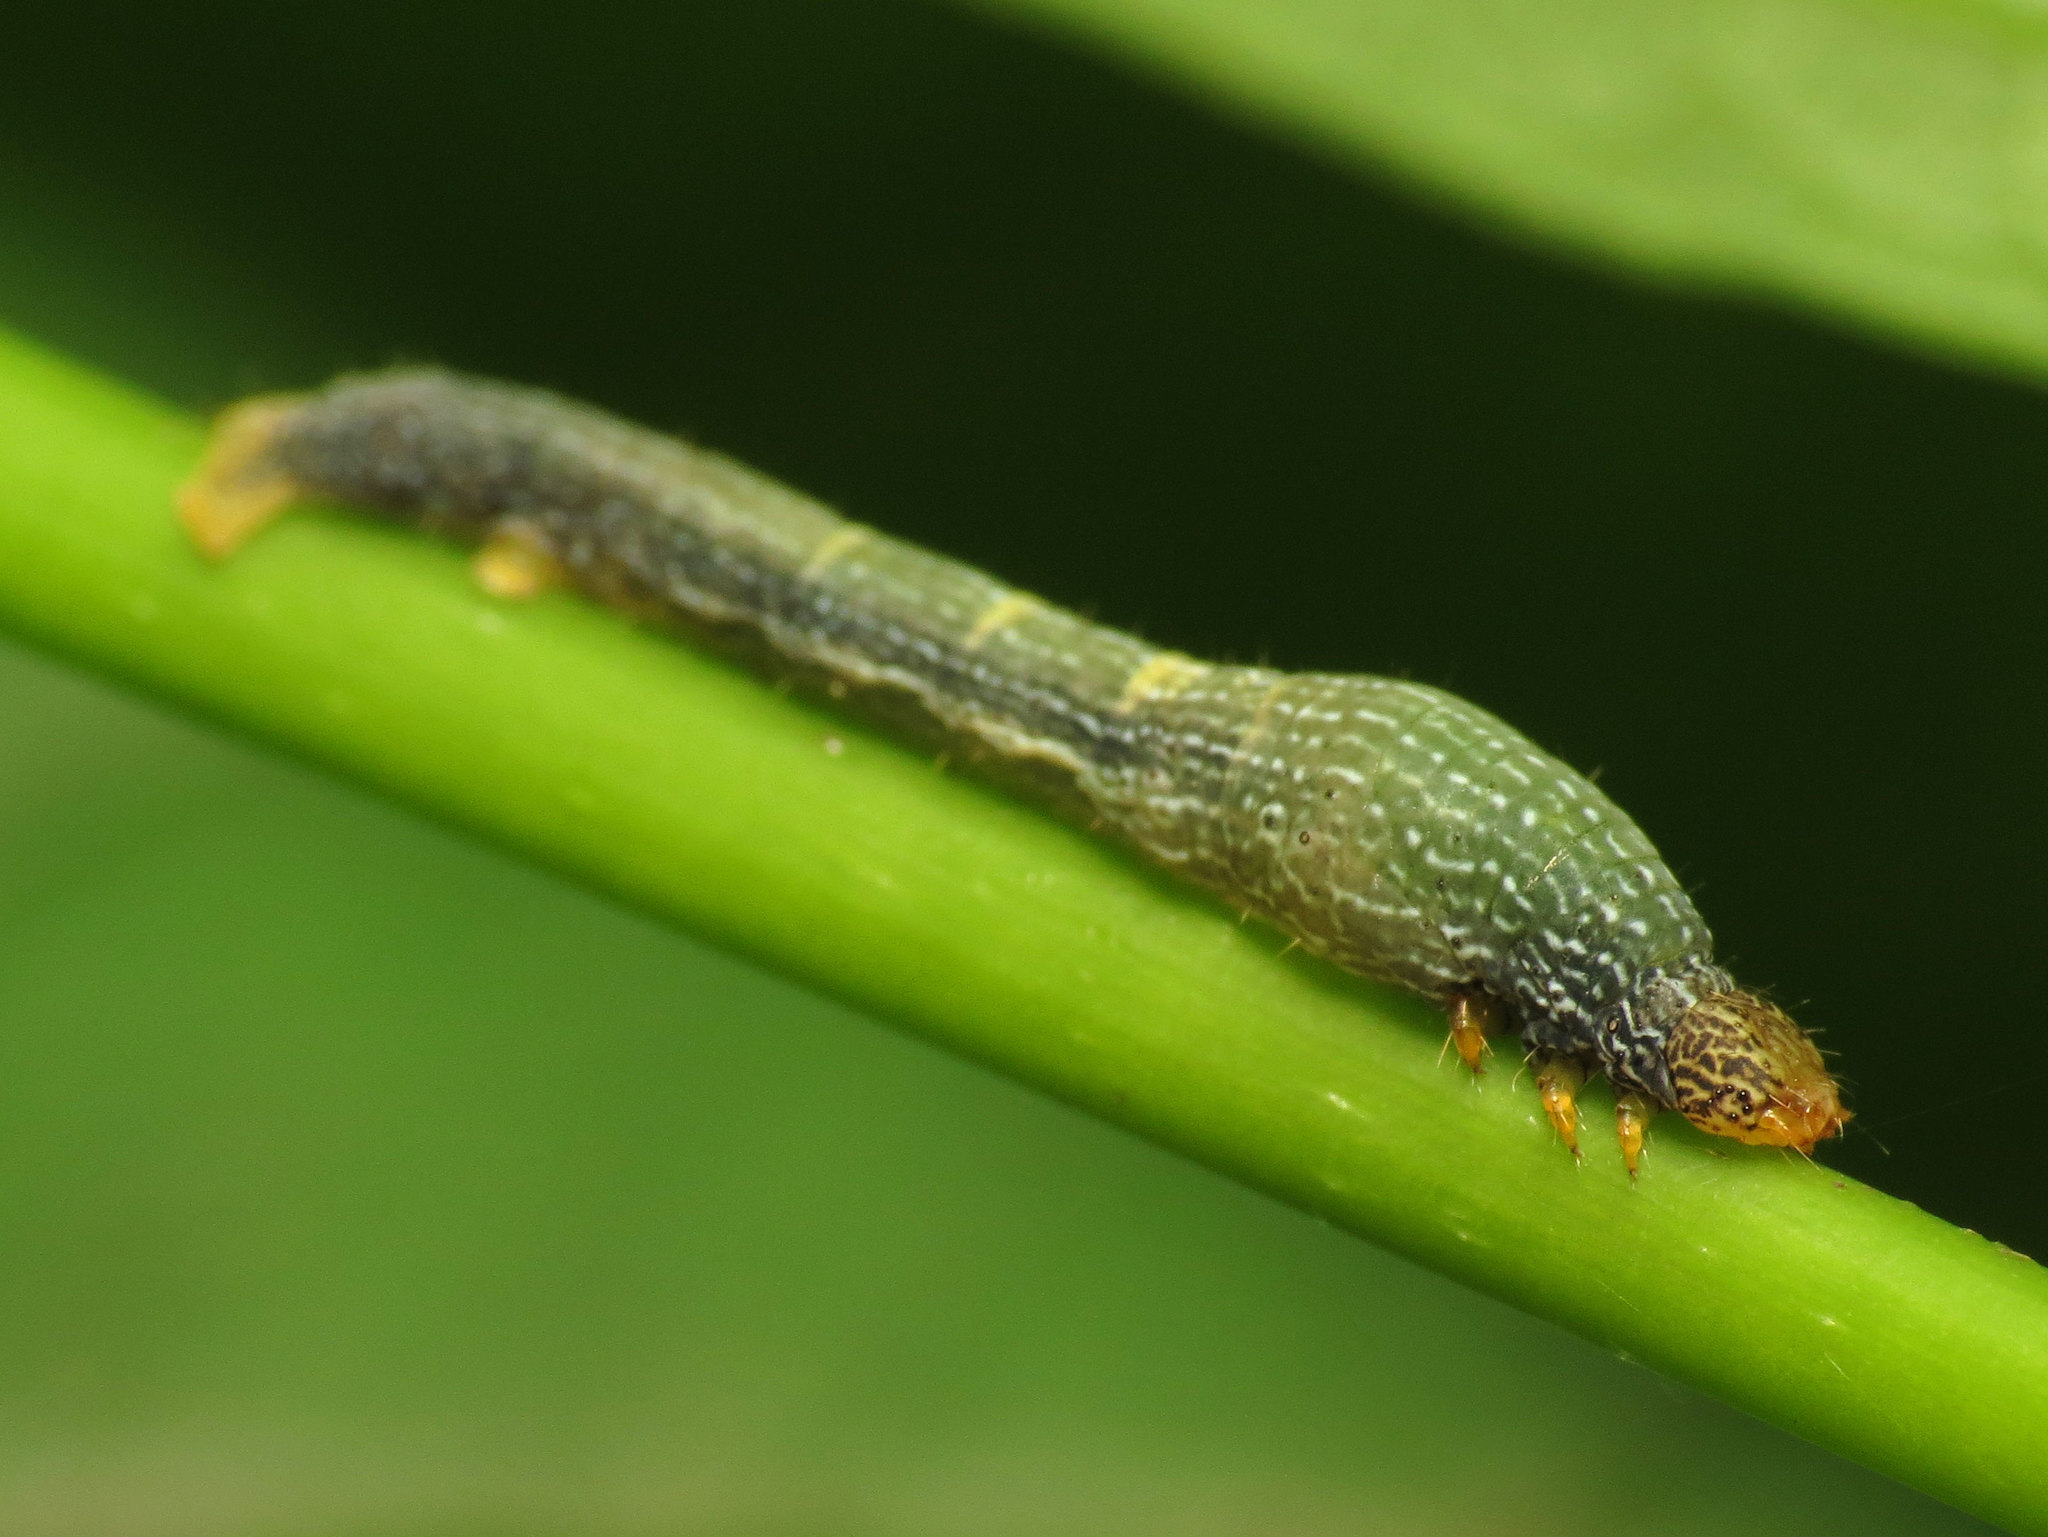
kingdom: Animalia
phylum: Arthropoda
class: Insecta
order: Lepidoptera
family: Geometridae
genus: Epimecis
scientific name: Epimecis hortaria
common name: Tulip-tree beauty
